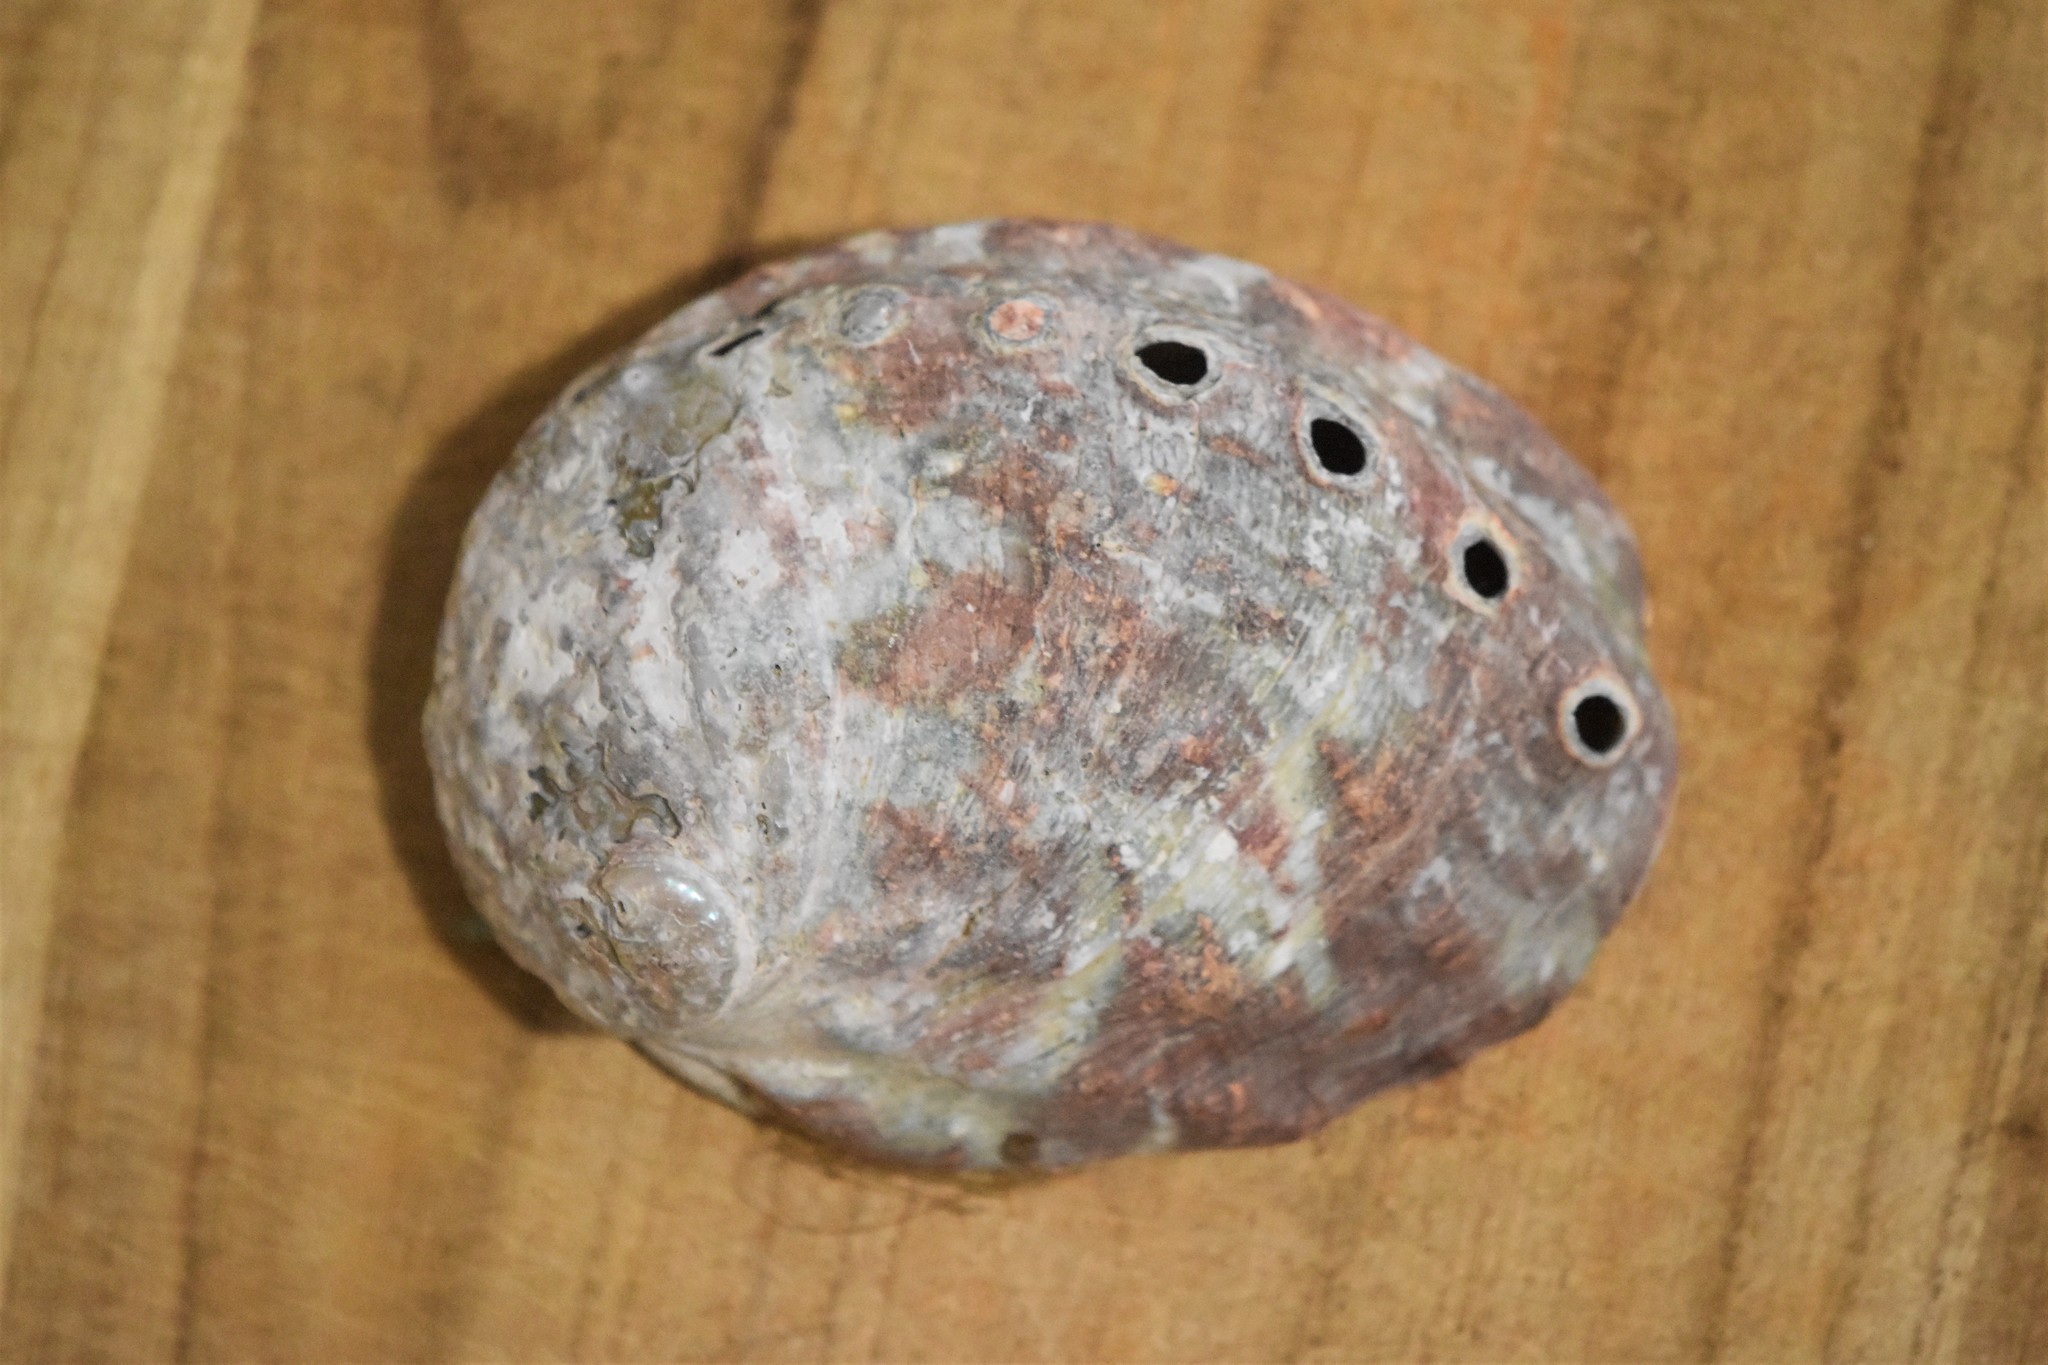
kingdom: Animalia
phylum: Mollusca
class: Gastropoda
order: Lepetellida
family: Haliotidae
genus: Haliotis
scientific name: Haliotis kamtschatkana
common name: Pinto abalone
